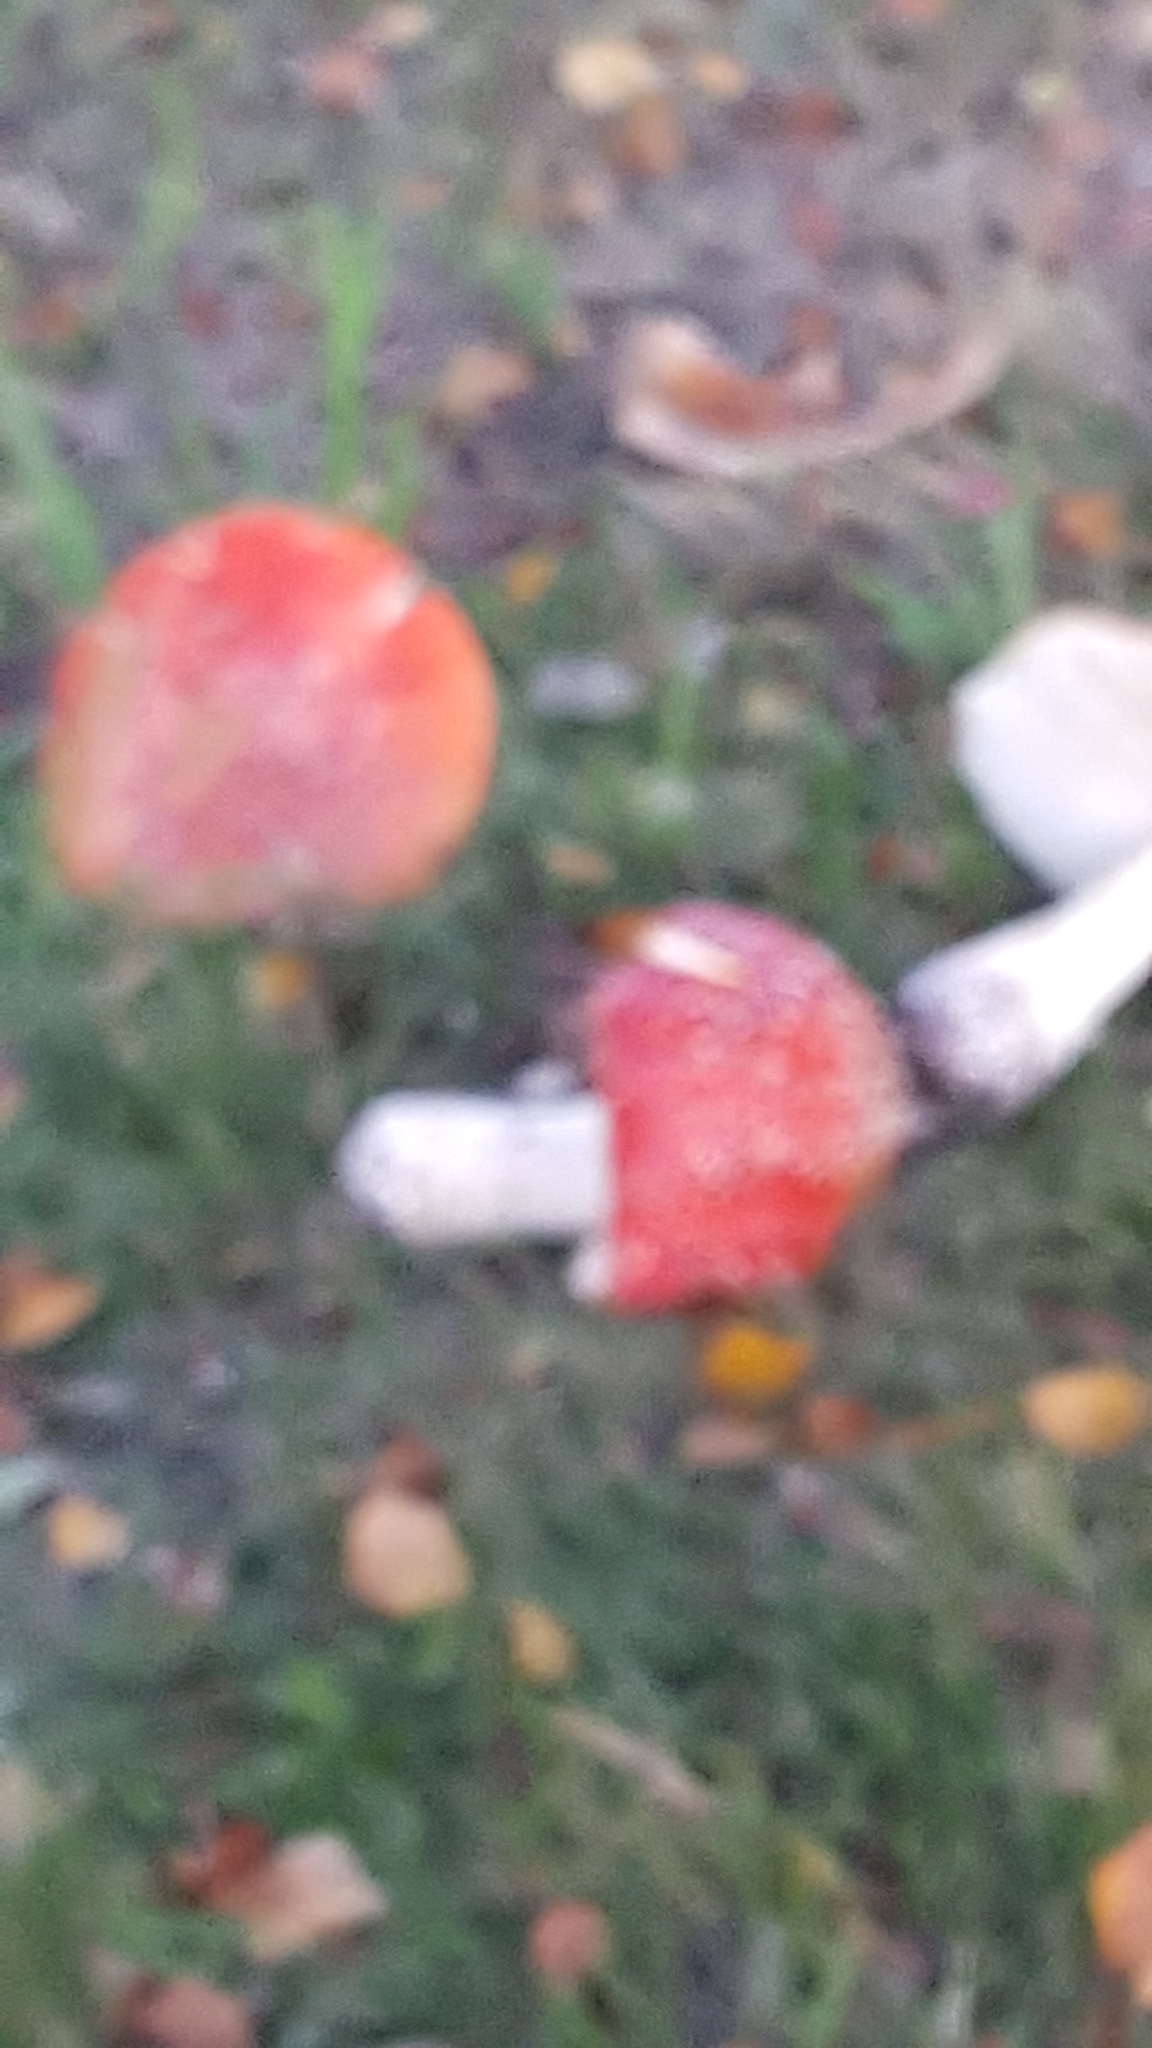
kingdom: Fungi
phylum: Basidiomycota
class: Agaricomycetes
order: Agaricales
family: Amanitaceae
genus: Amanita
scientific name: Amanita muscaria
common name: Fly agaric
